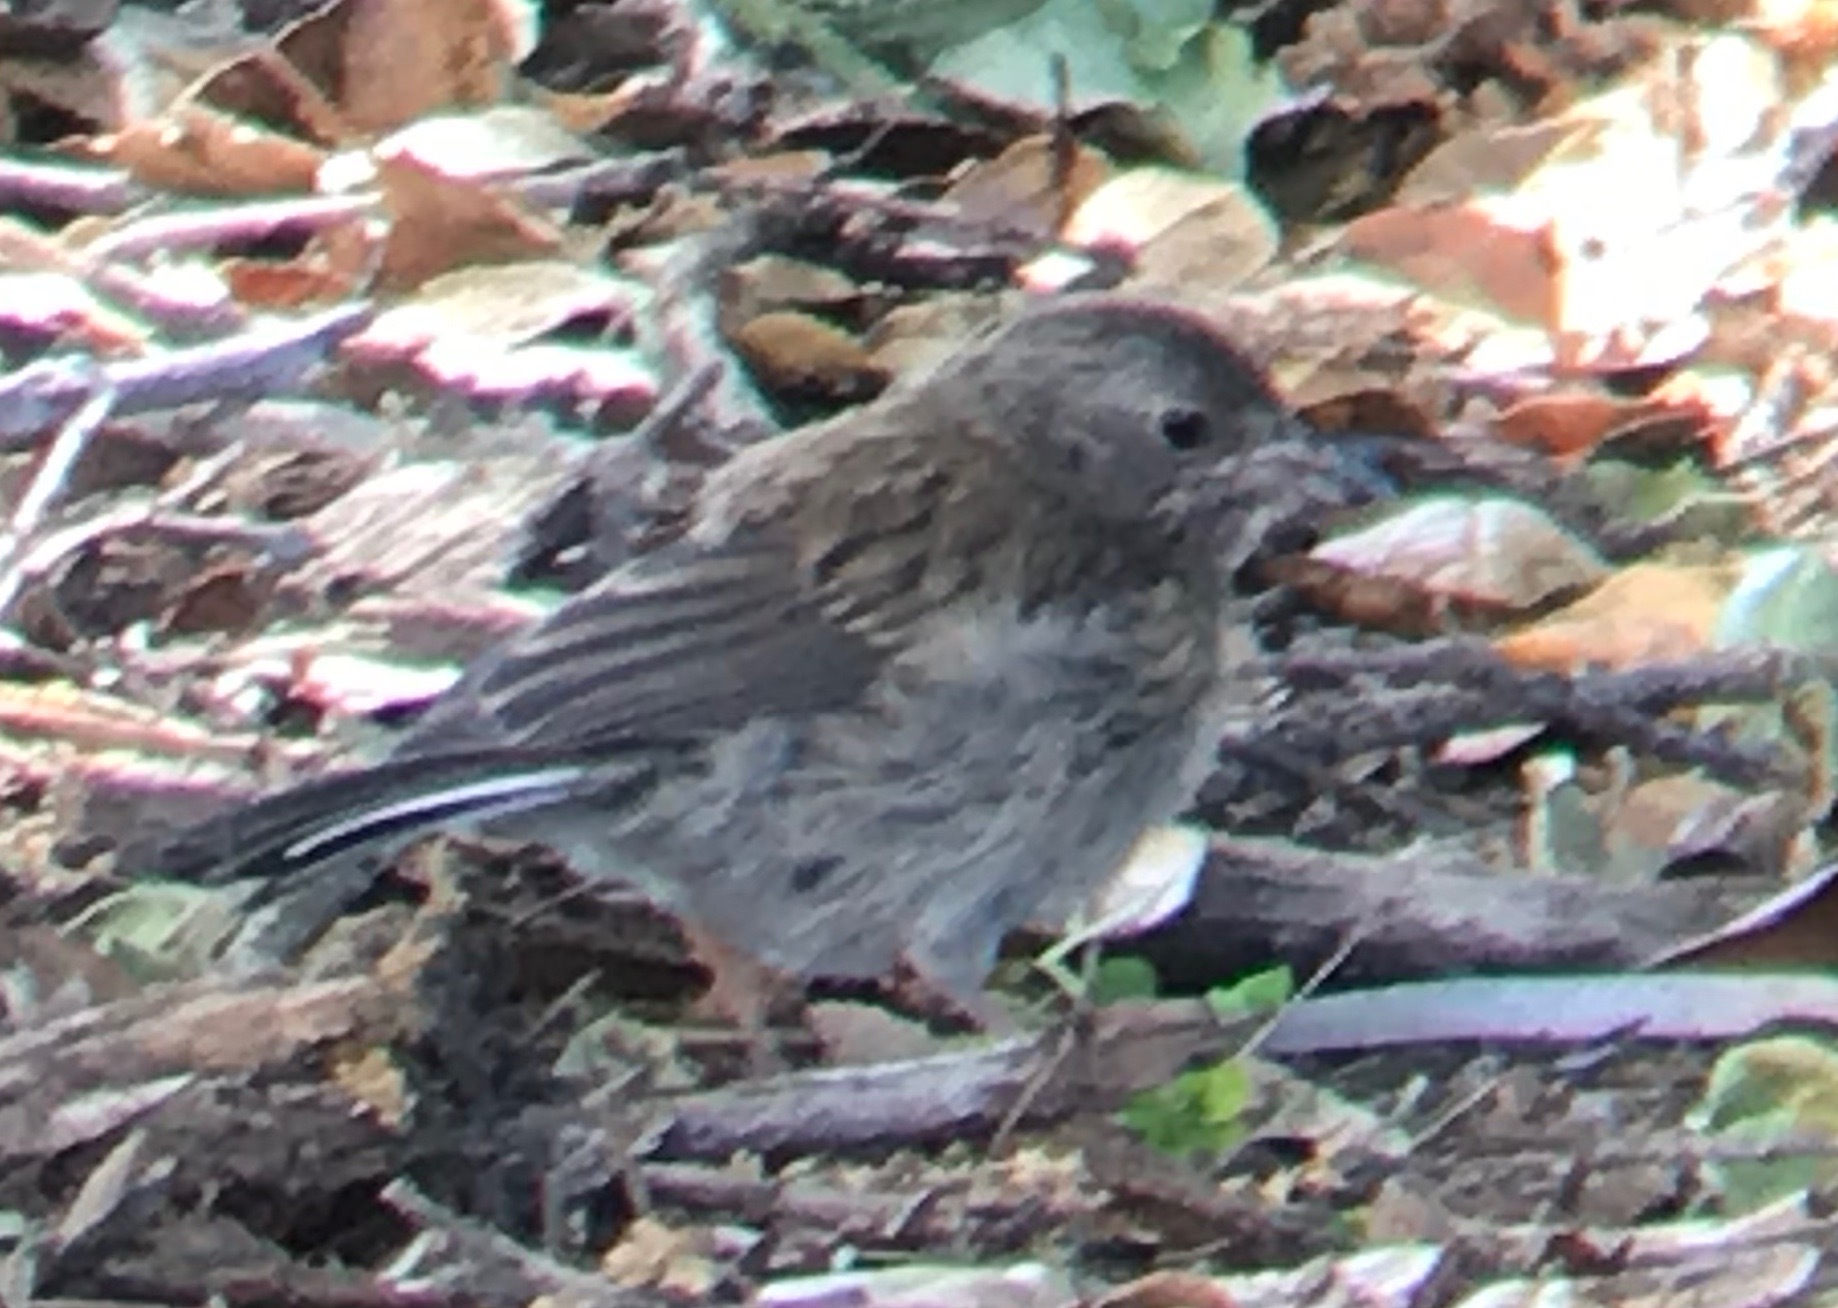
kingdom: Animalia
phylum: Chordata
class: Aves
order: Passeriformes
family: Passerellidae
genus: Junco
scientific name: Junco hyemalis
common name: Dark-eyed junco
